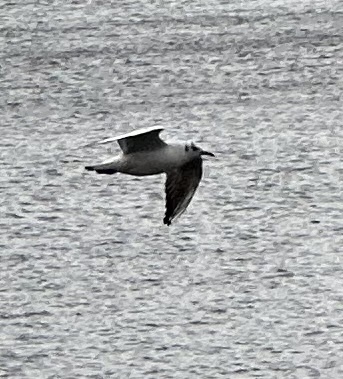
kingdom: Animalia
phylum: Chordata
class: Aves
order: Charadriiformes
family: Laridae
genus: Chroicocephalus
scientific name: Chroicocephalus ridibundus
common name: Black-headed gull
